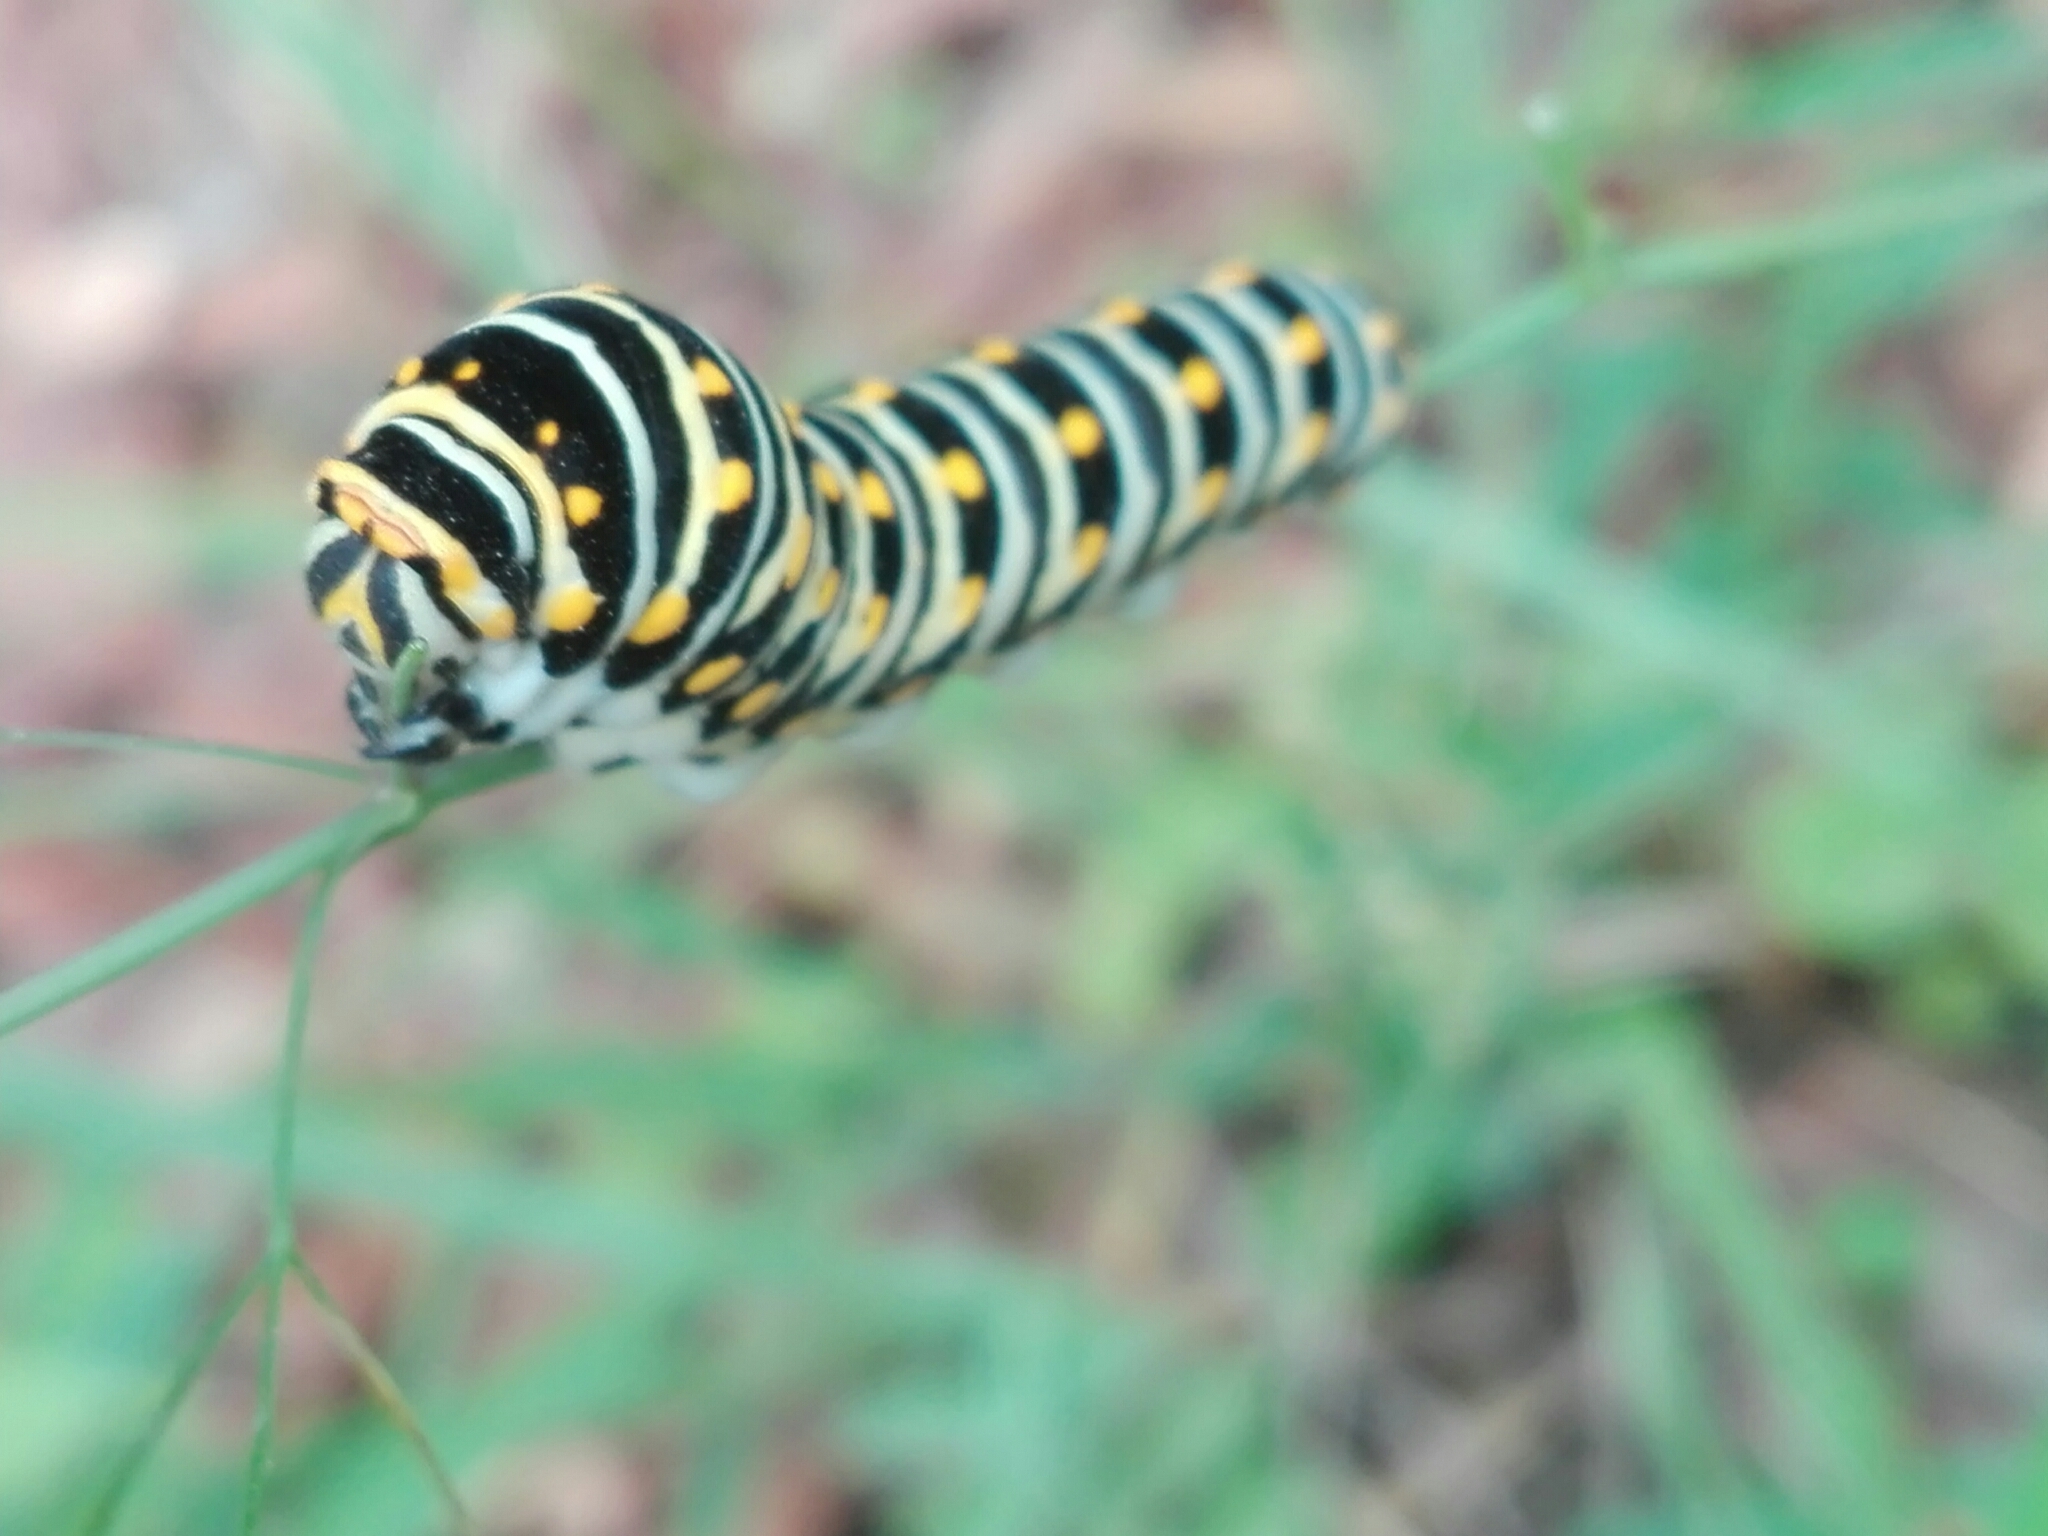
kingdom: Animalia
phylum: Arthropoda
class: Insecta
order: Lepidoptera
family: Papilionidae
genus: Papilio
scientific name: Papilio polyxenes
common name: Black swallowtail
